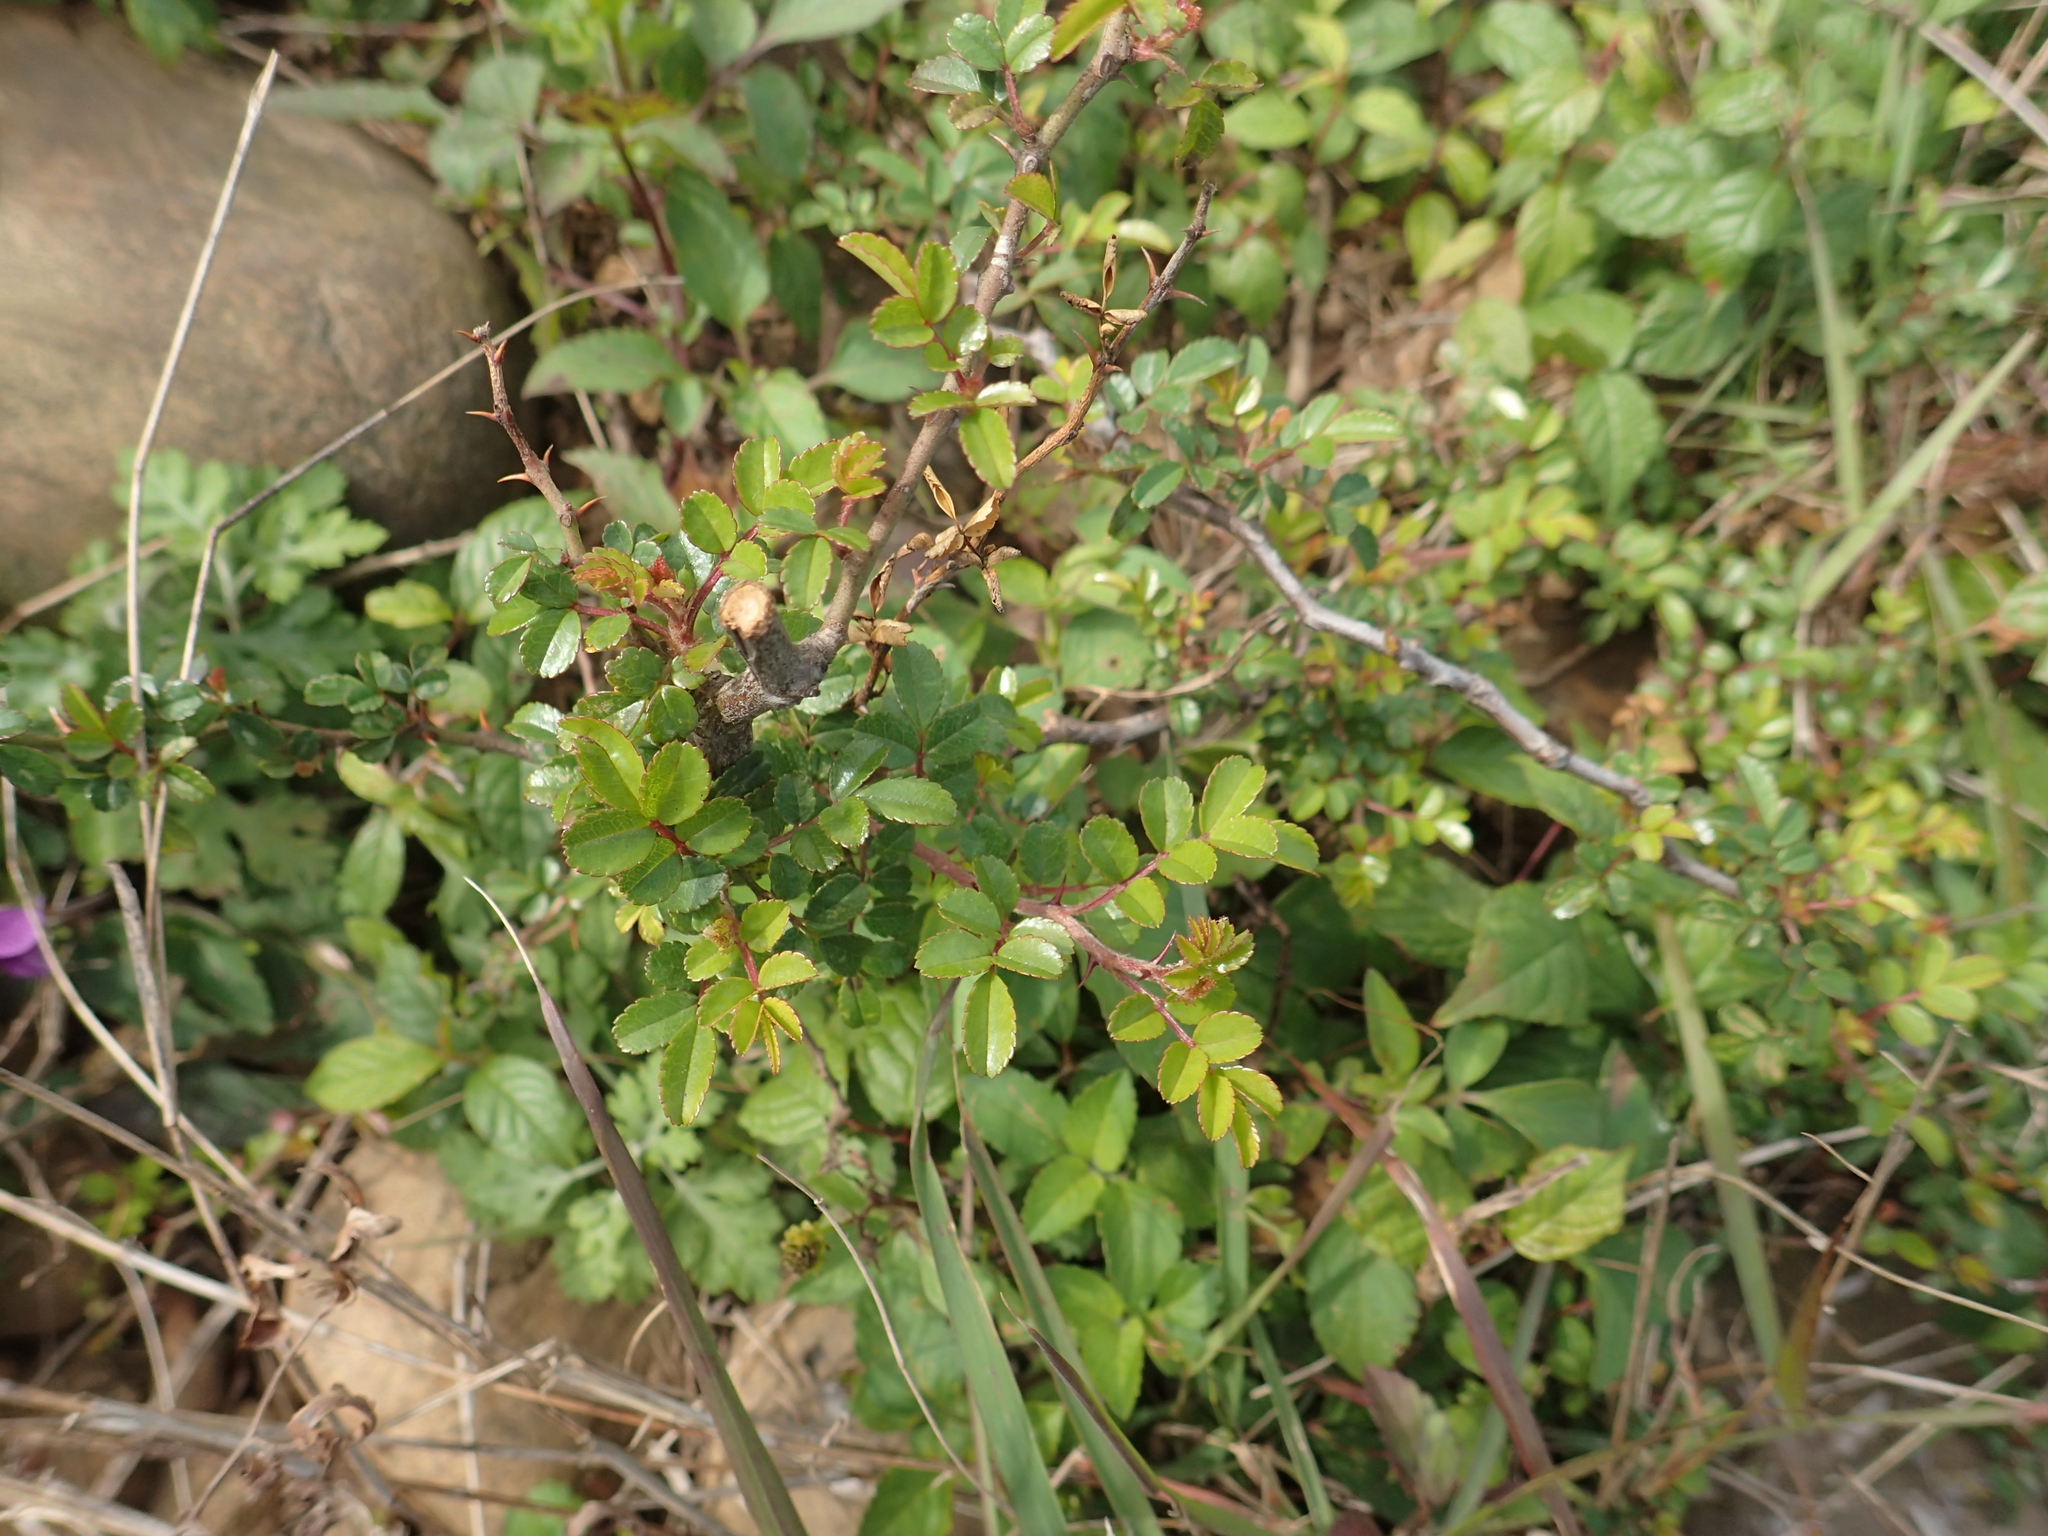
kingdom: Plantae
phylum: Tracheophyta
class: Magnoliopsida
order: Rosales
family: Rosaceae
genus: Rosa
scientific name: Rosa bracteata
